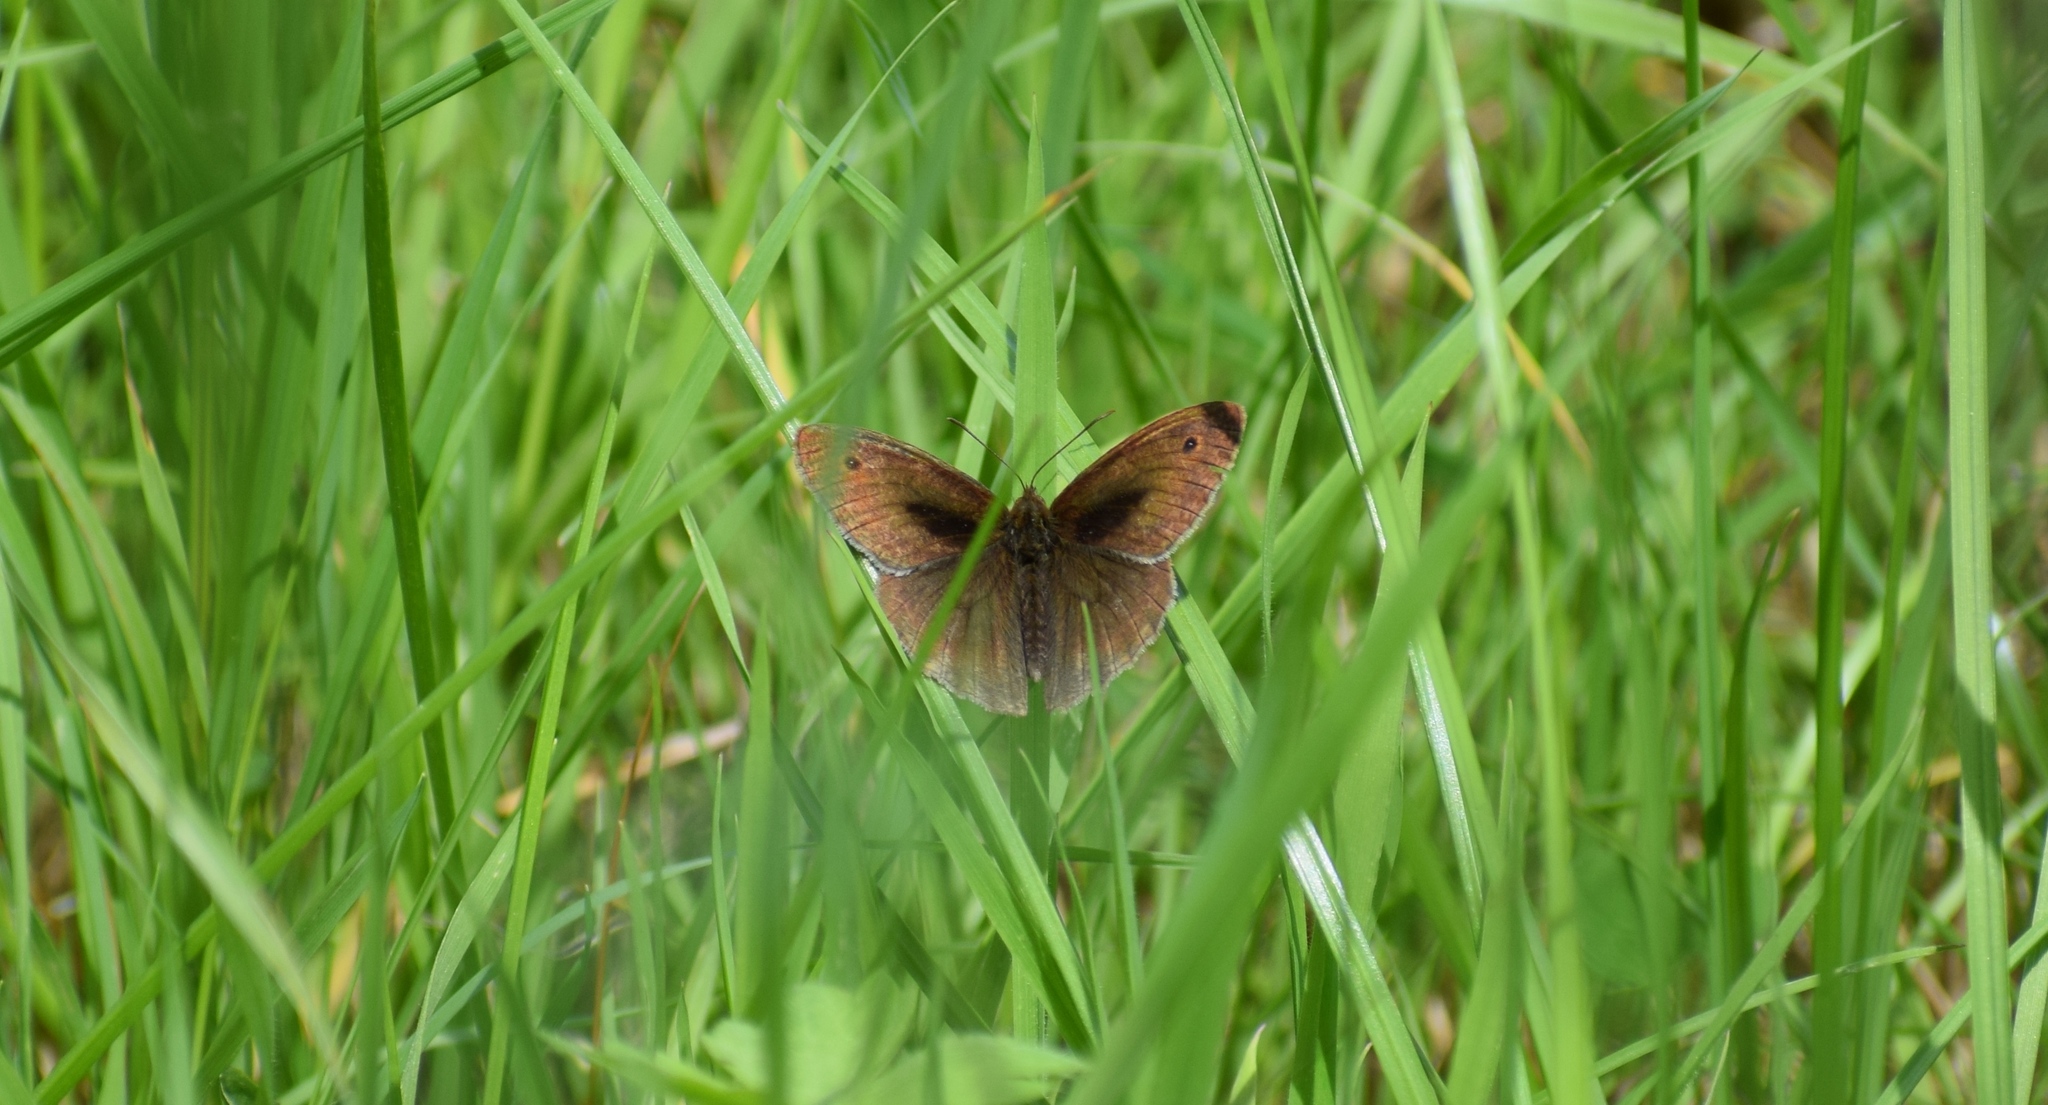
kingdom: Animalia
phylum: Arthropoda
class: Insecta
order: Lepidoptera
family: Nymphalidae
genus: Maniola
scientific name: Maniola jurtina
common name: Meadow brown
